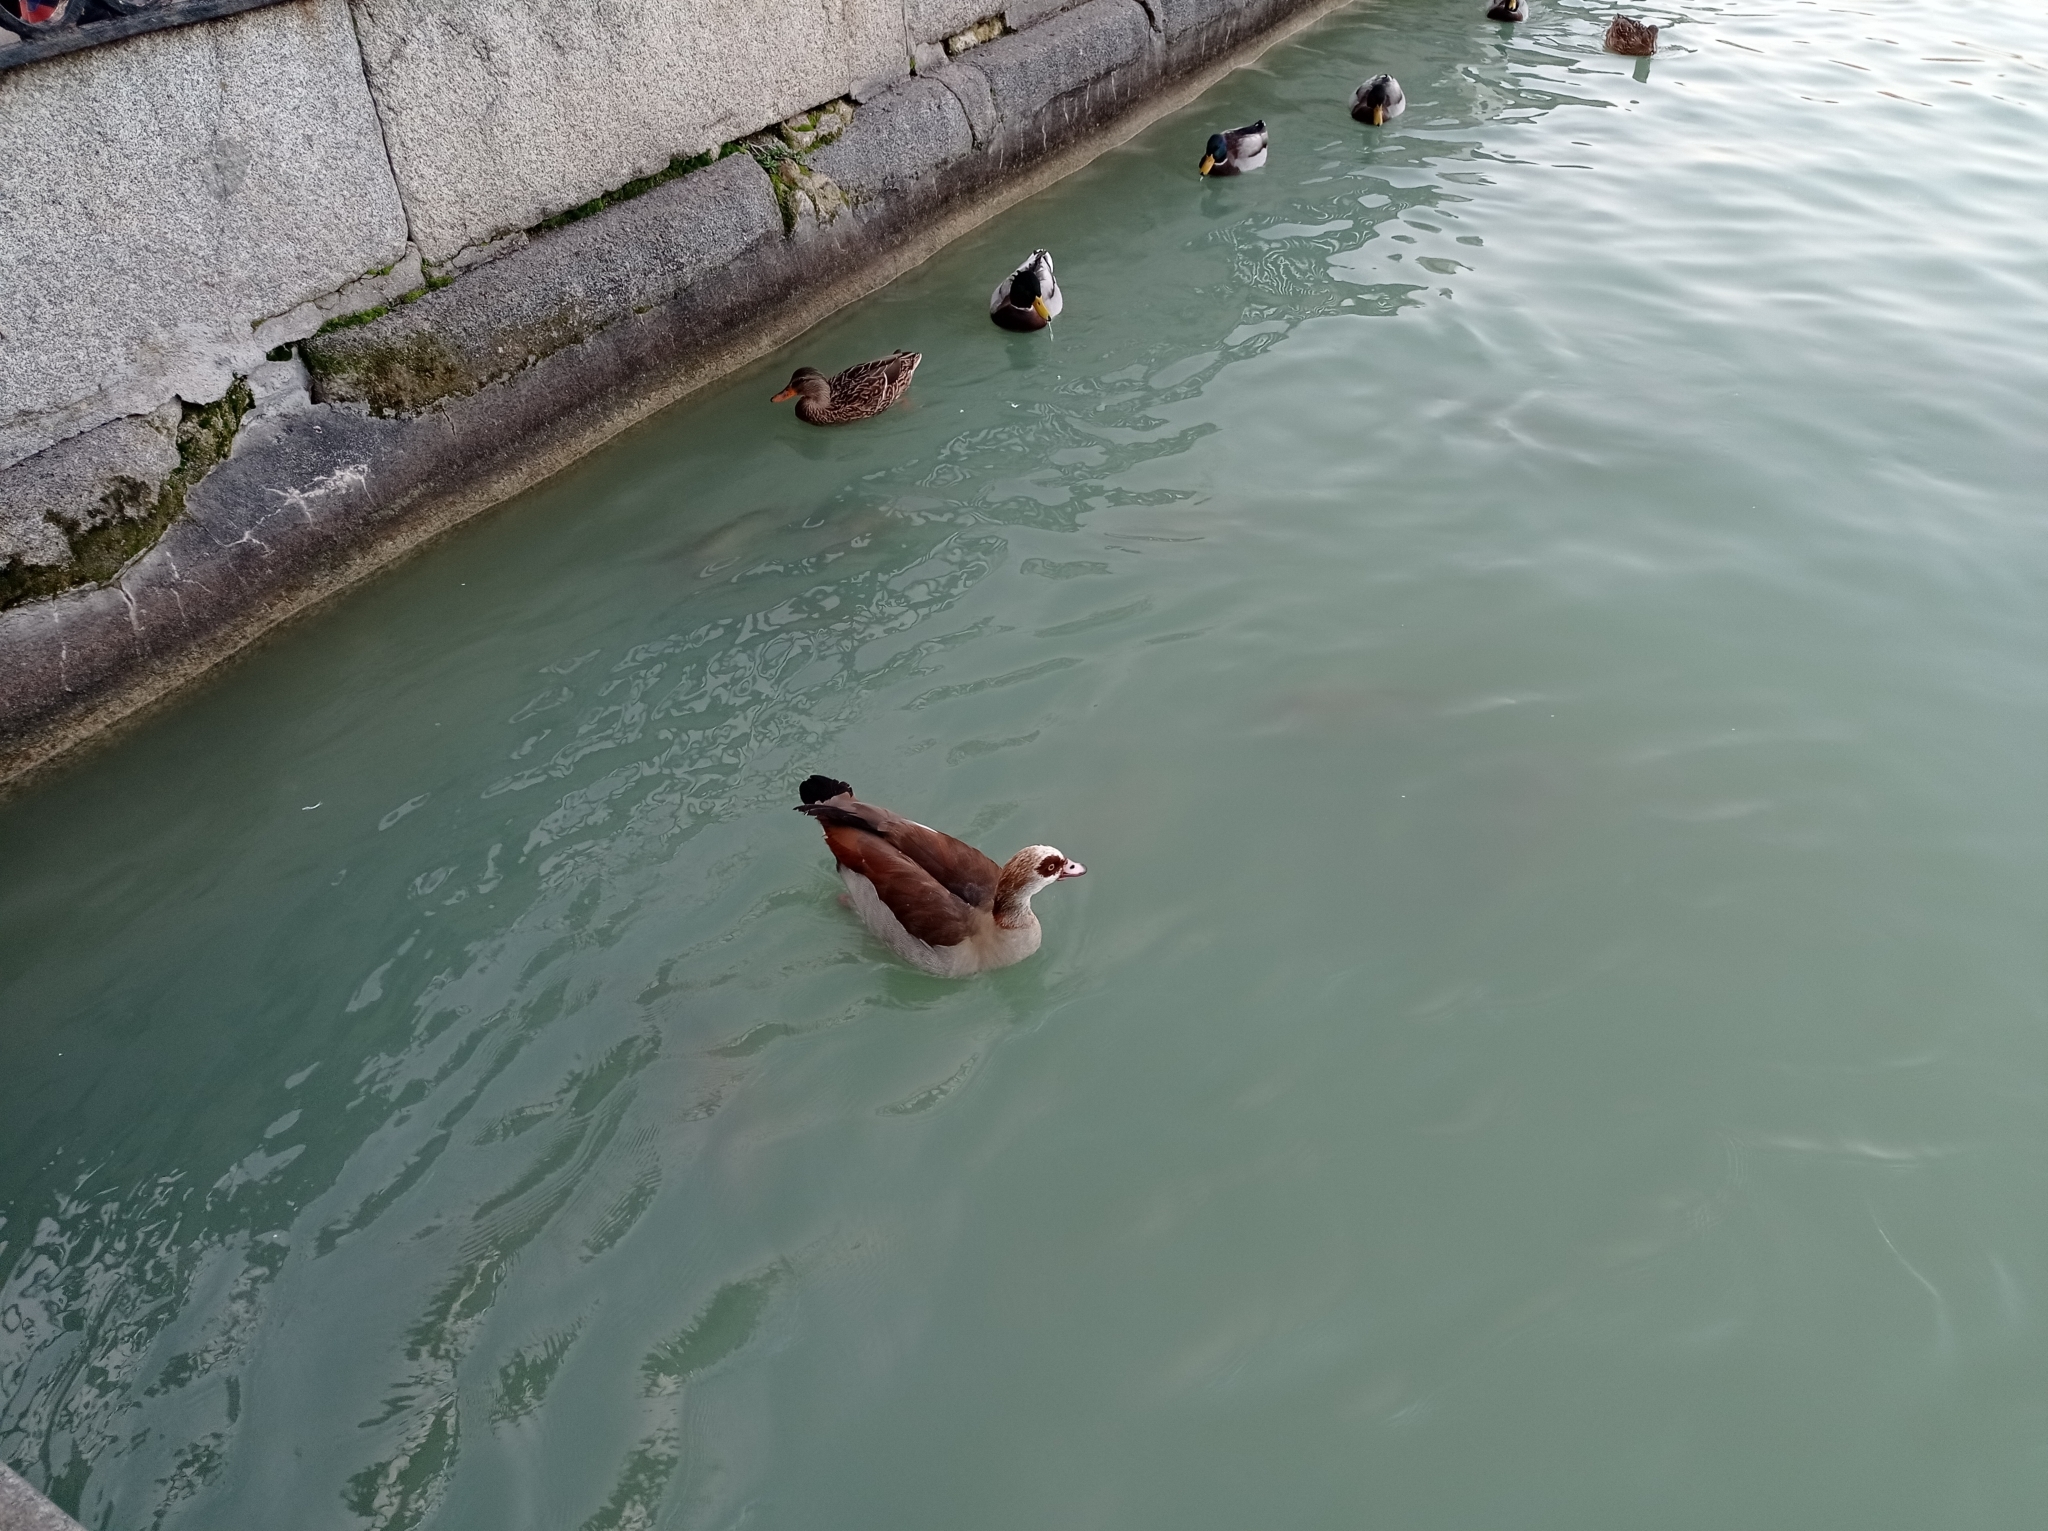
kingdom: Animalia
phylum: Chordata
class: Aves
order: Anseriformes
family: Anatidae
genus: Alopochen
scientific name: Alopochen aegyptiaca
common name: Egyptian goose
